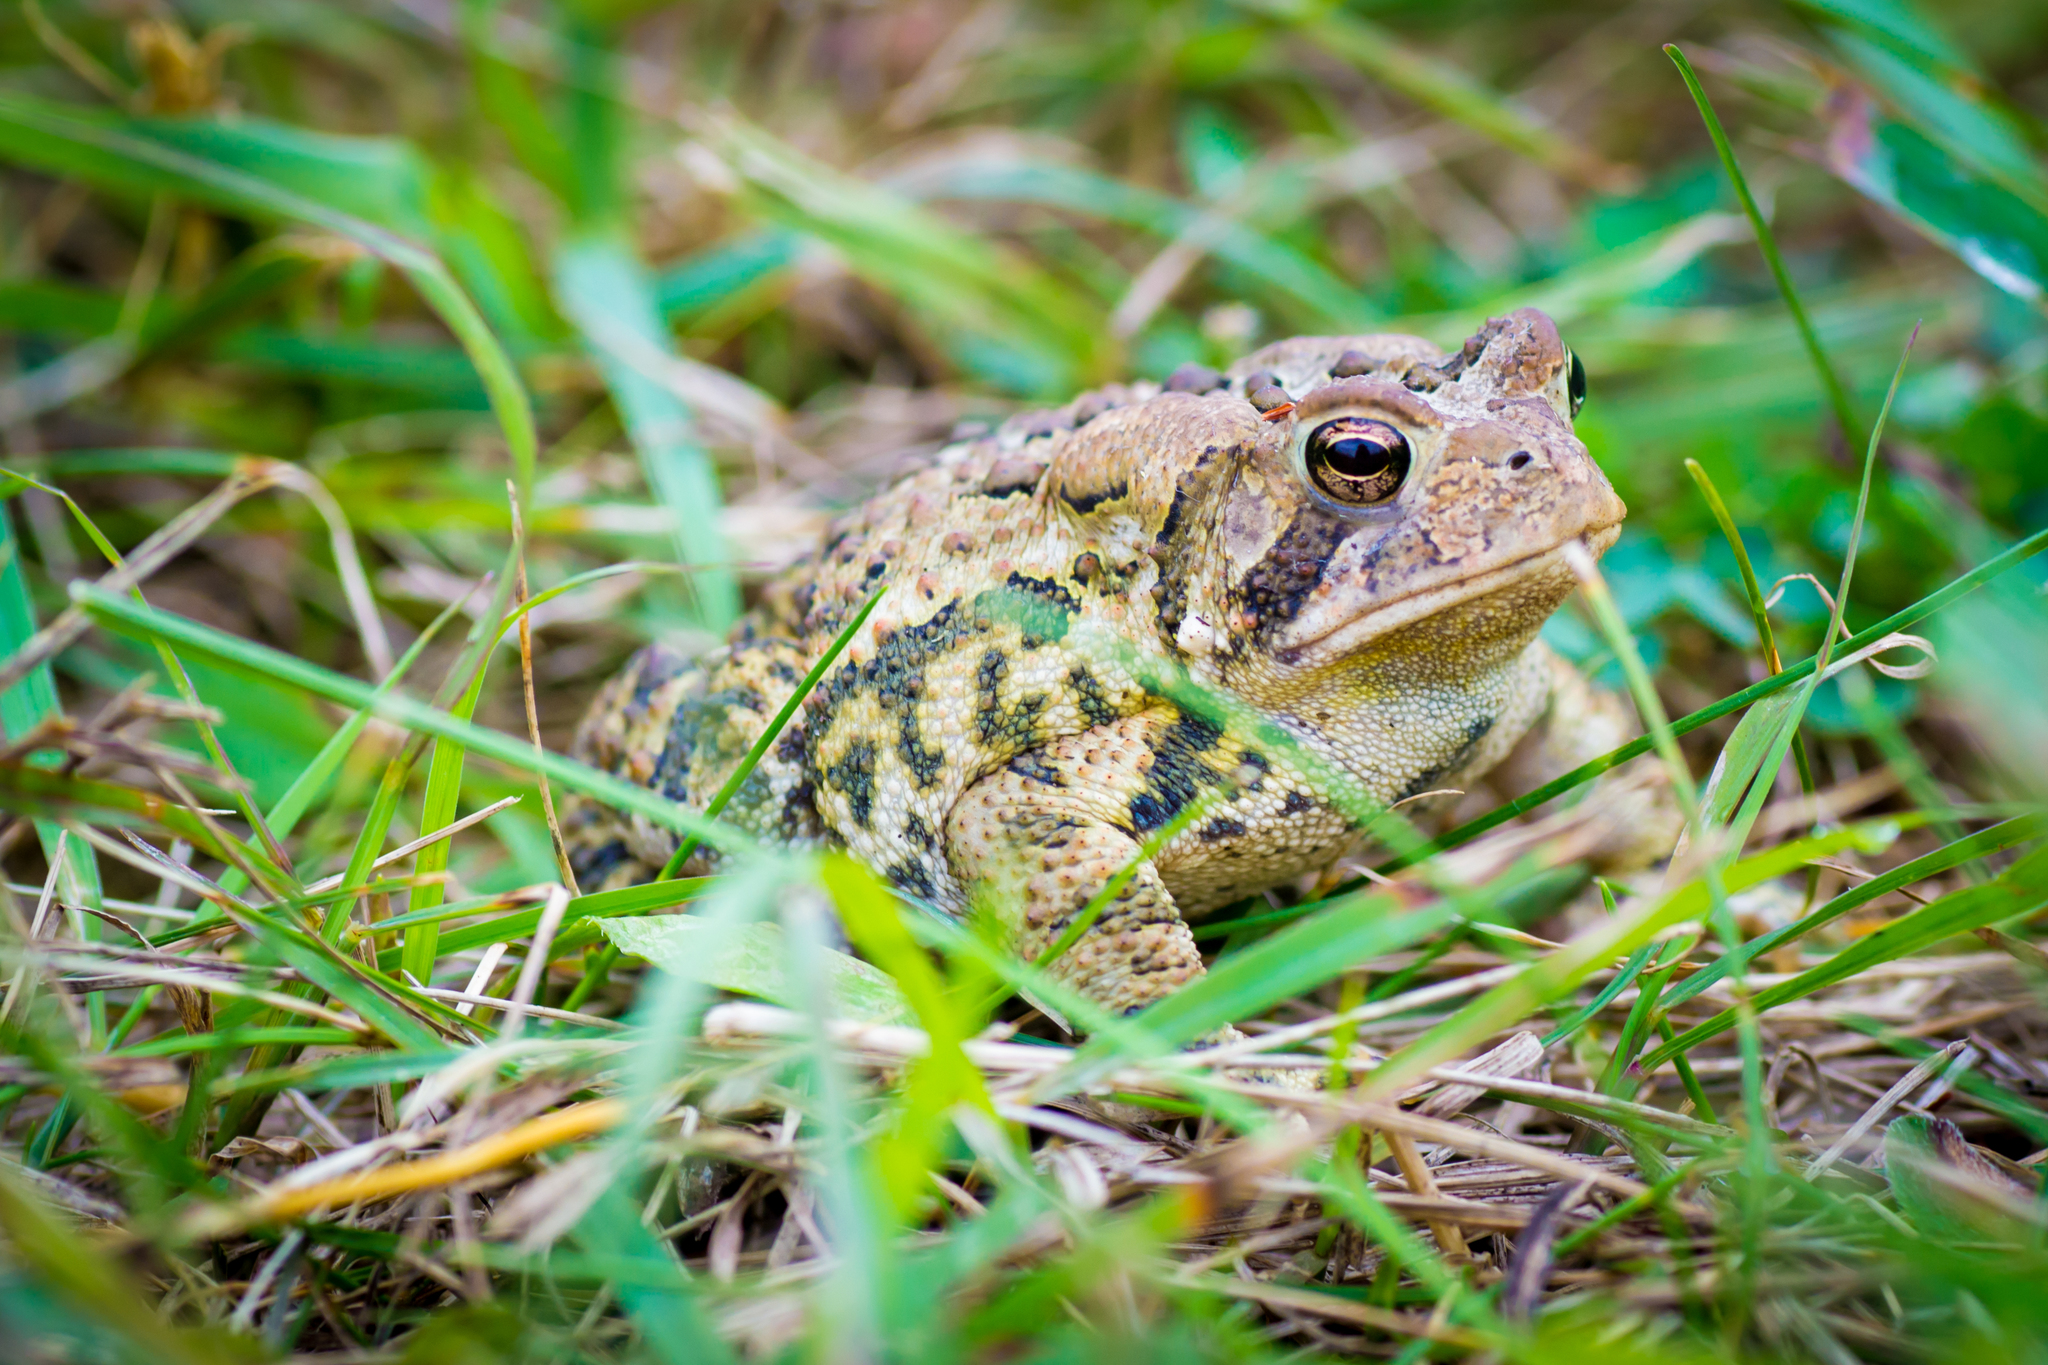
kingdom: Animalia
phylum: Chordata
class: Amphibia
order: Anura
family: Bufonidae
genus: Anaxyrus
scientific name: Anaxyrus americanus
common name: American toad
